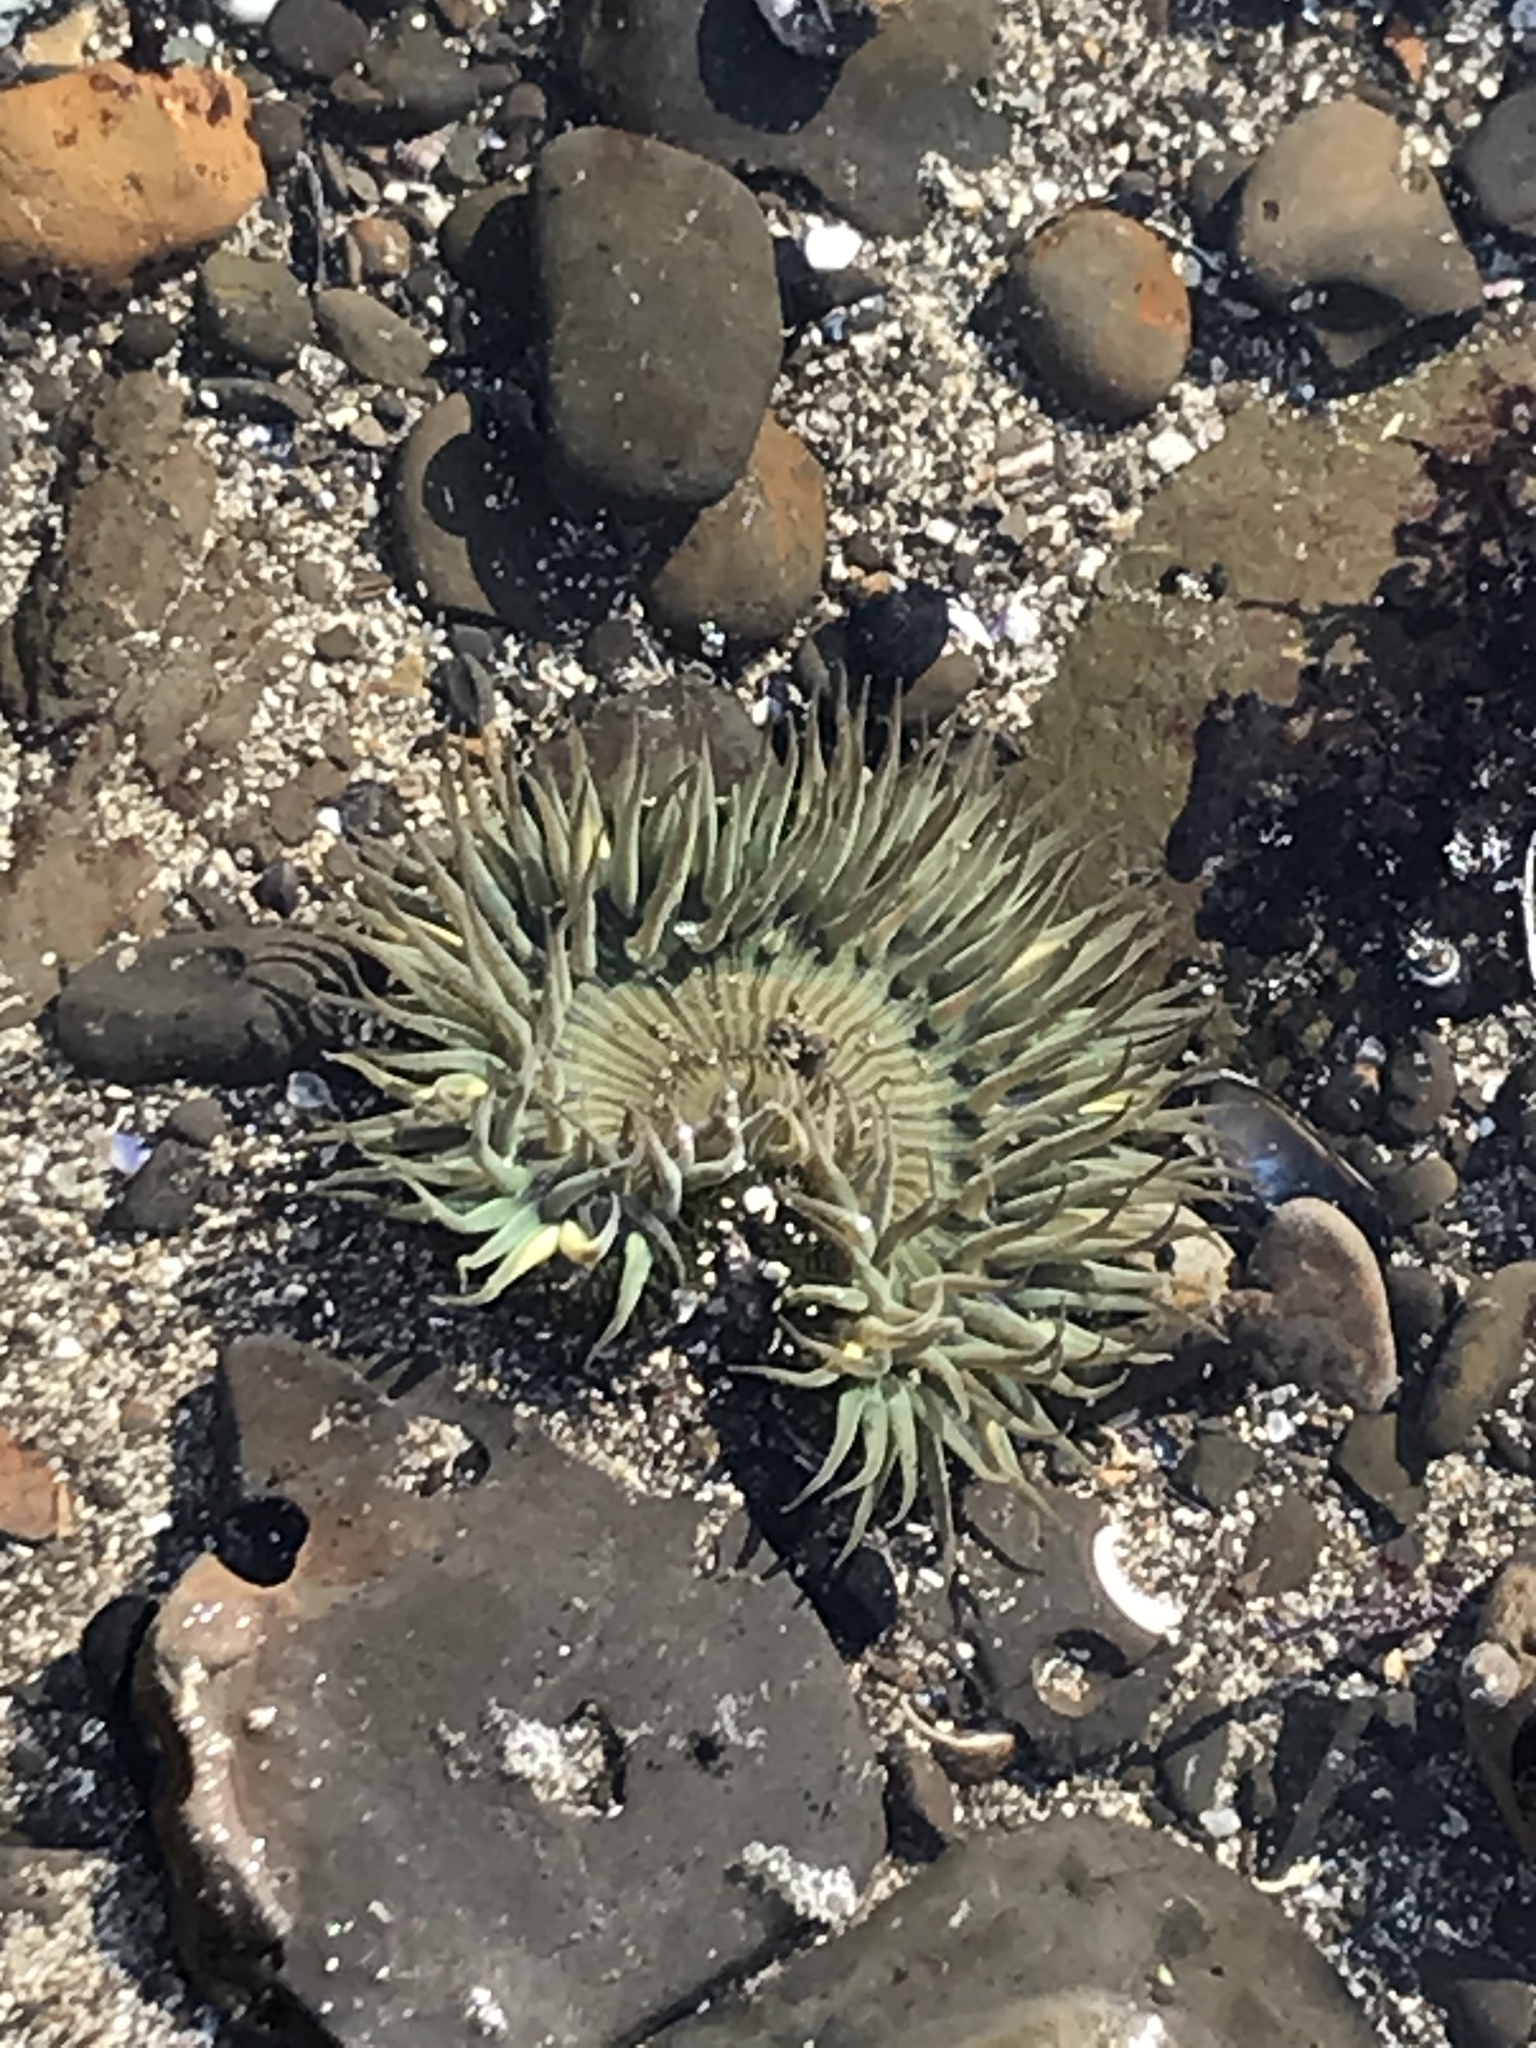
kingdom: Animalia
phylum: Cnidaria
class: Anthozoa
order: Actiniaria
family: Actiniidae
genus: Anthopleura
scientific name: Anthopleura sola
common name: Sun anemone
